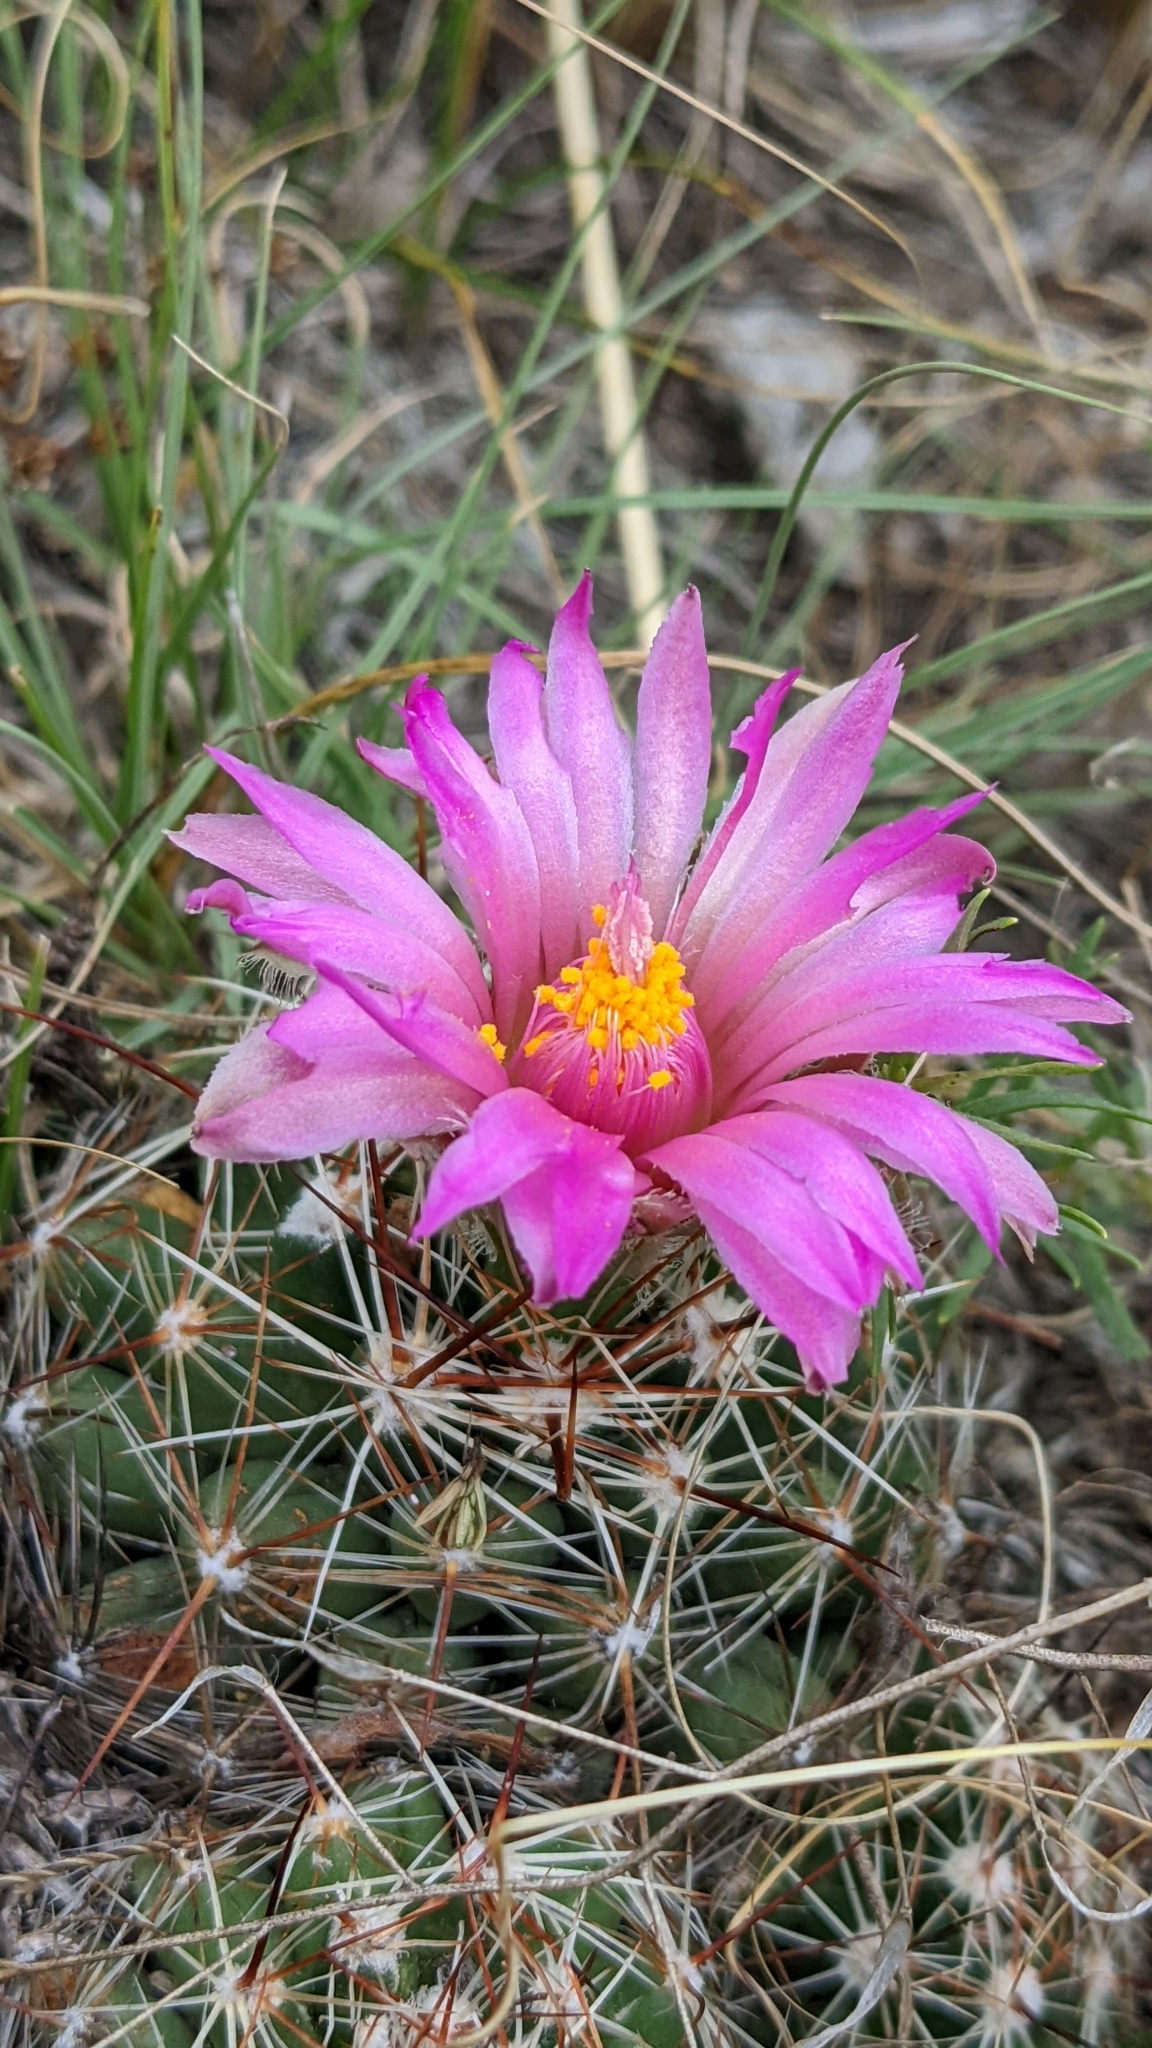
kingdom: Plantae
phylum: Tracheophyta
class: Magnoliopsida
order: Caryophyllales
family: Cactaceae
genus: Pelecyphora
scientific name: Pelecyphora vivipara
